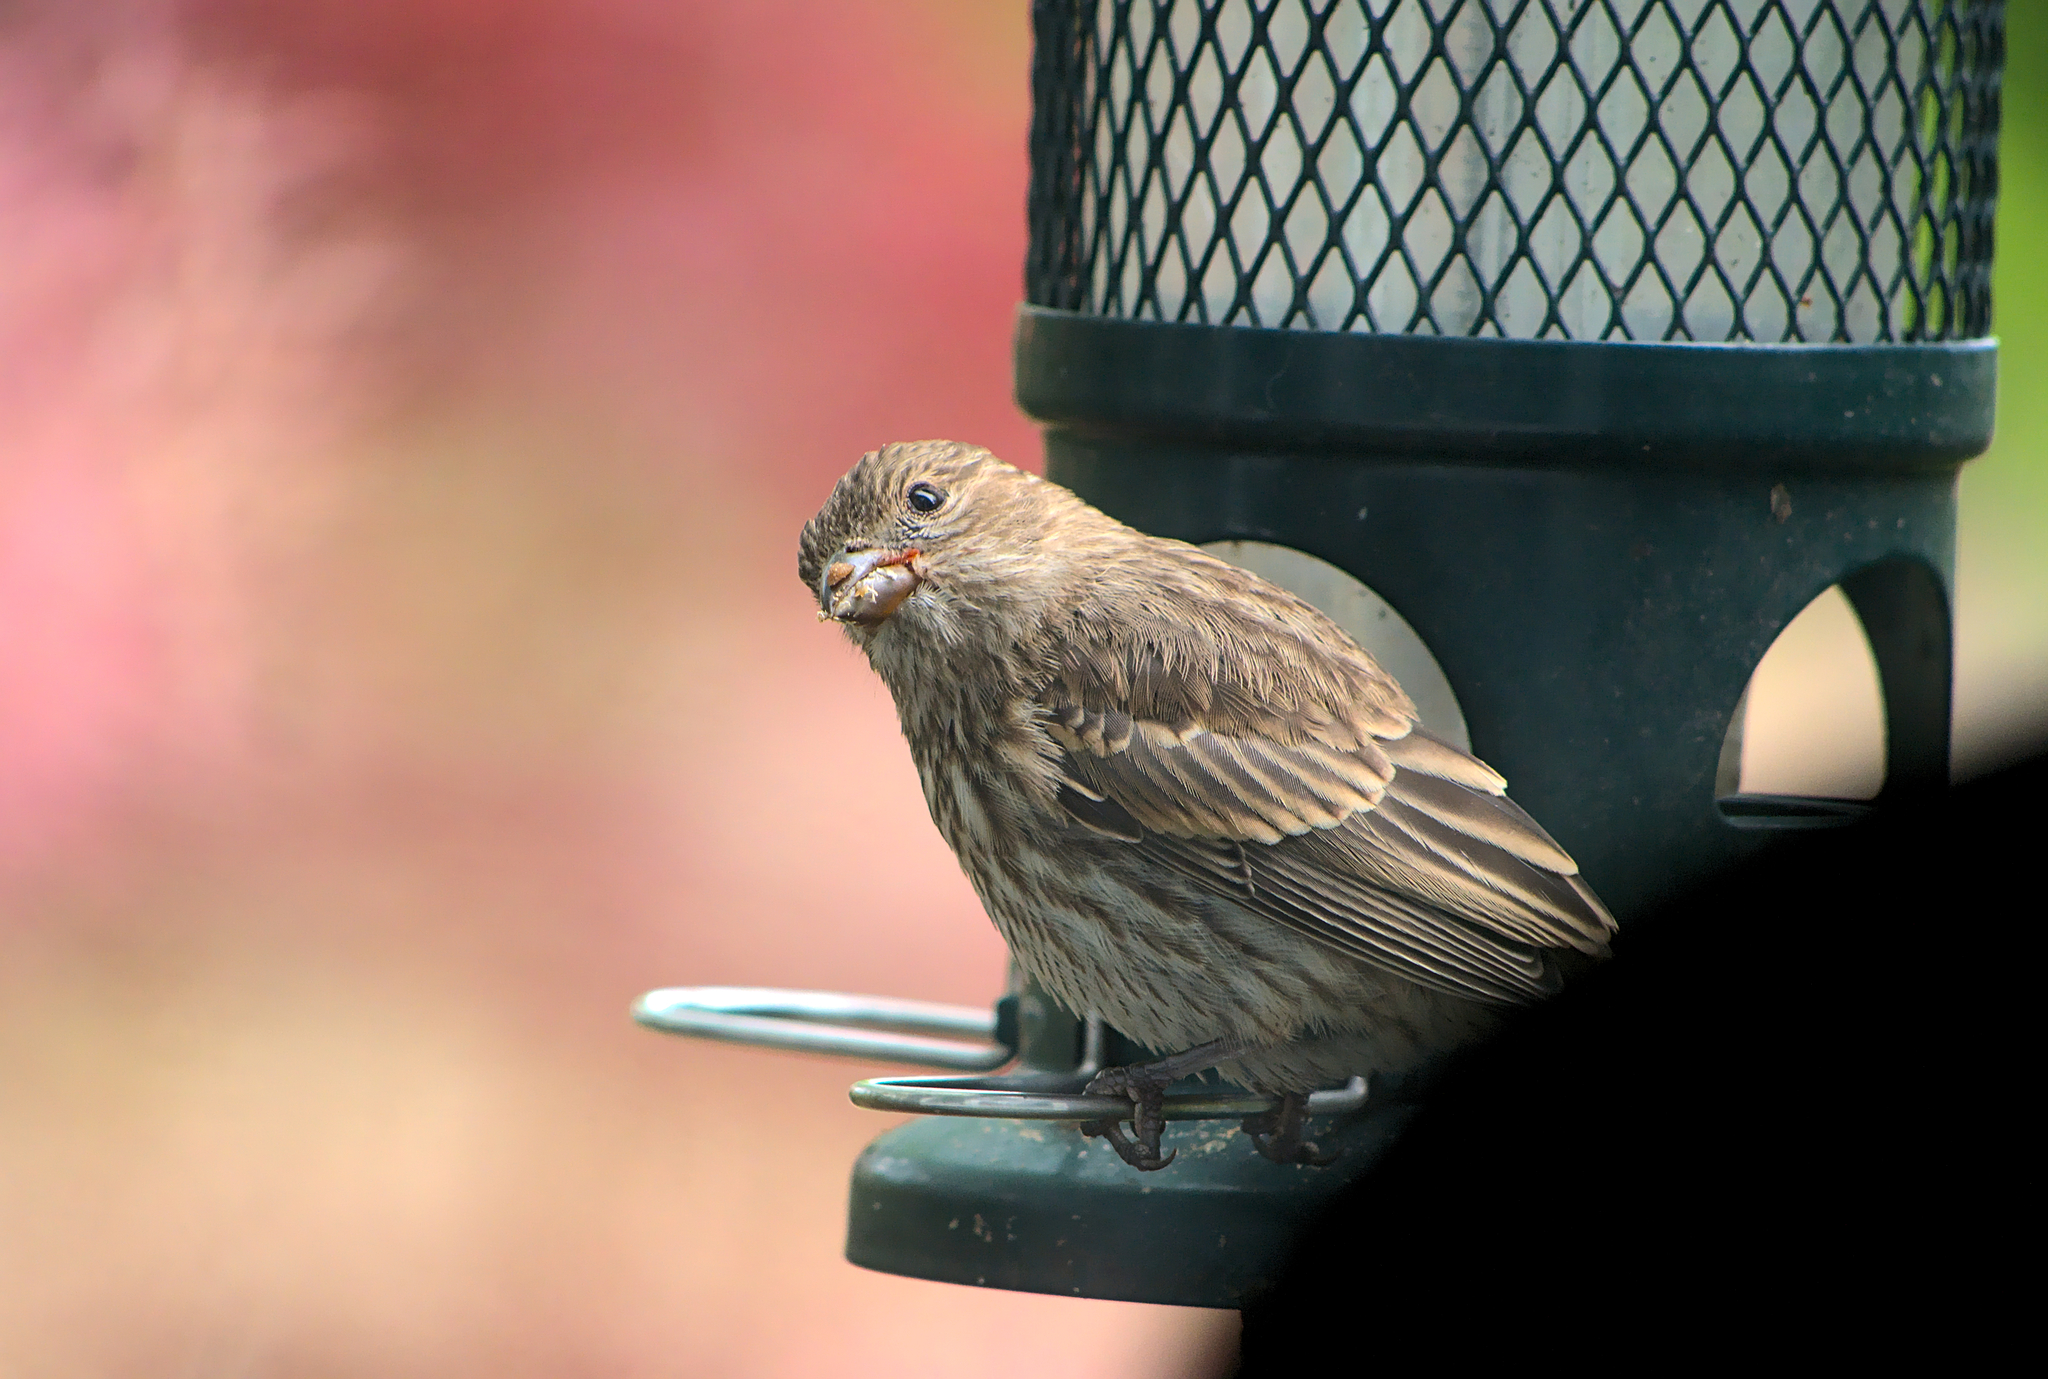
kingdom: Animalia
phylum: Chordata
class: Aves
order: Passeriformes
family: Fringillidae
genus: Haemorhous
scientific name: Haemorhous mexicanus
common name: House finch
